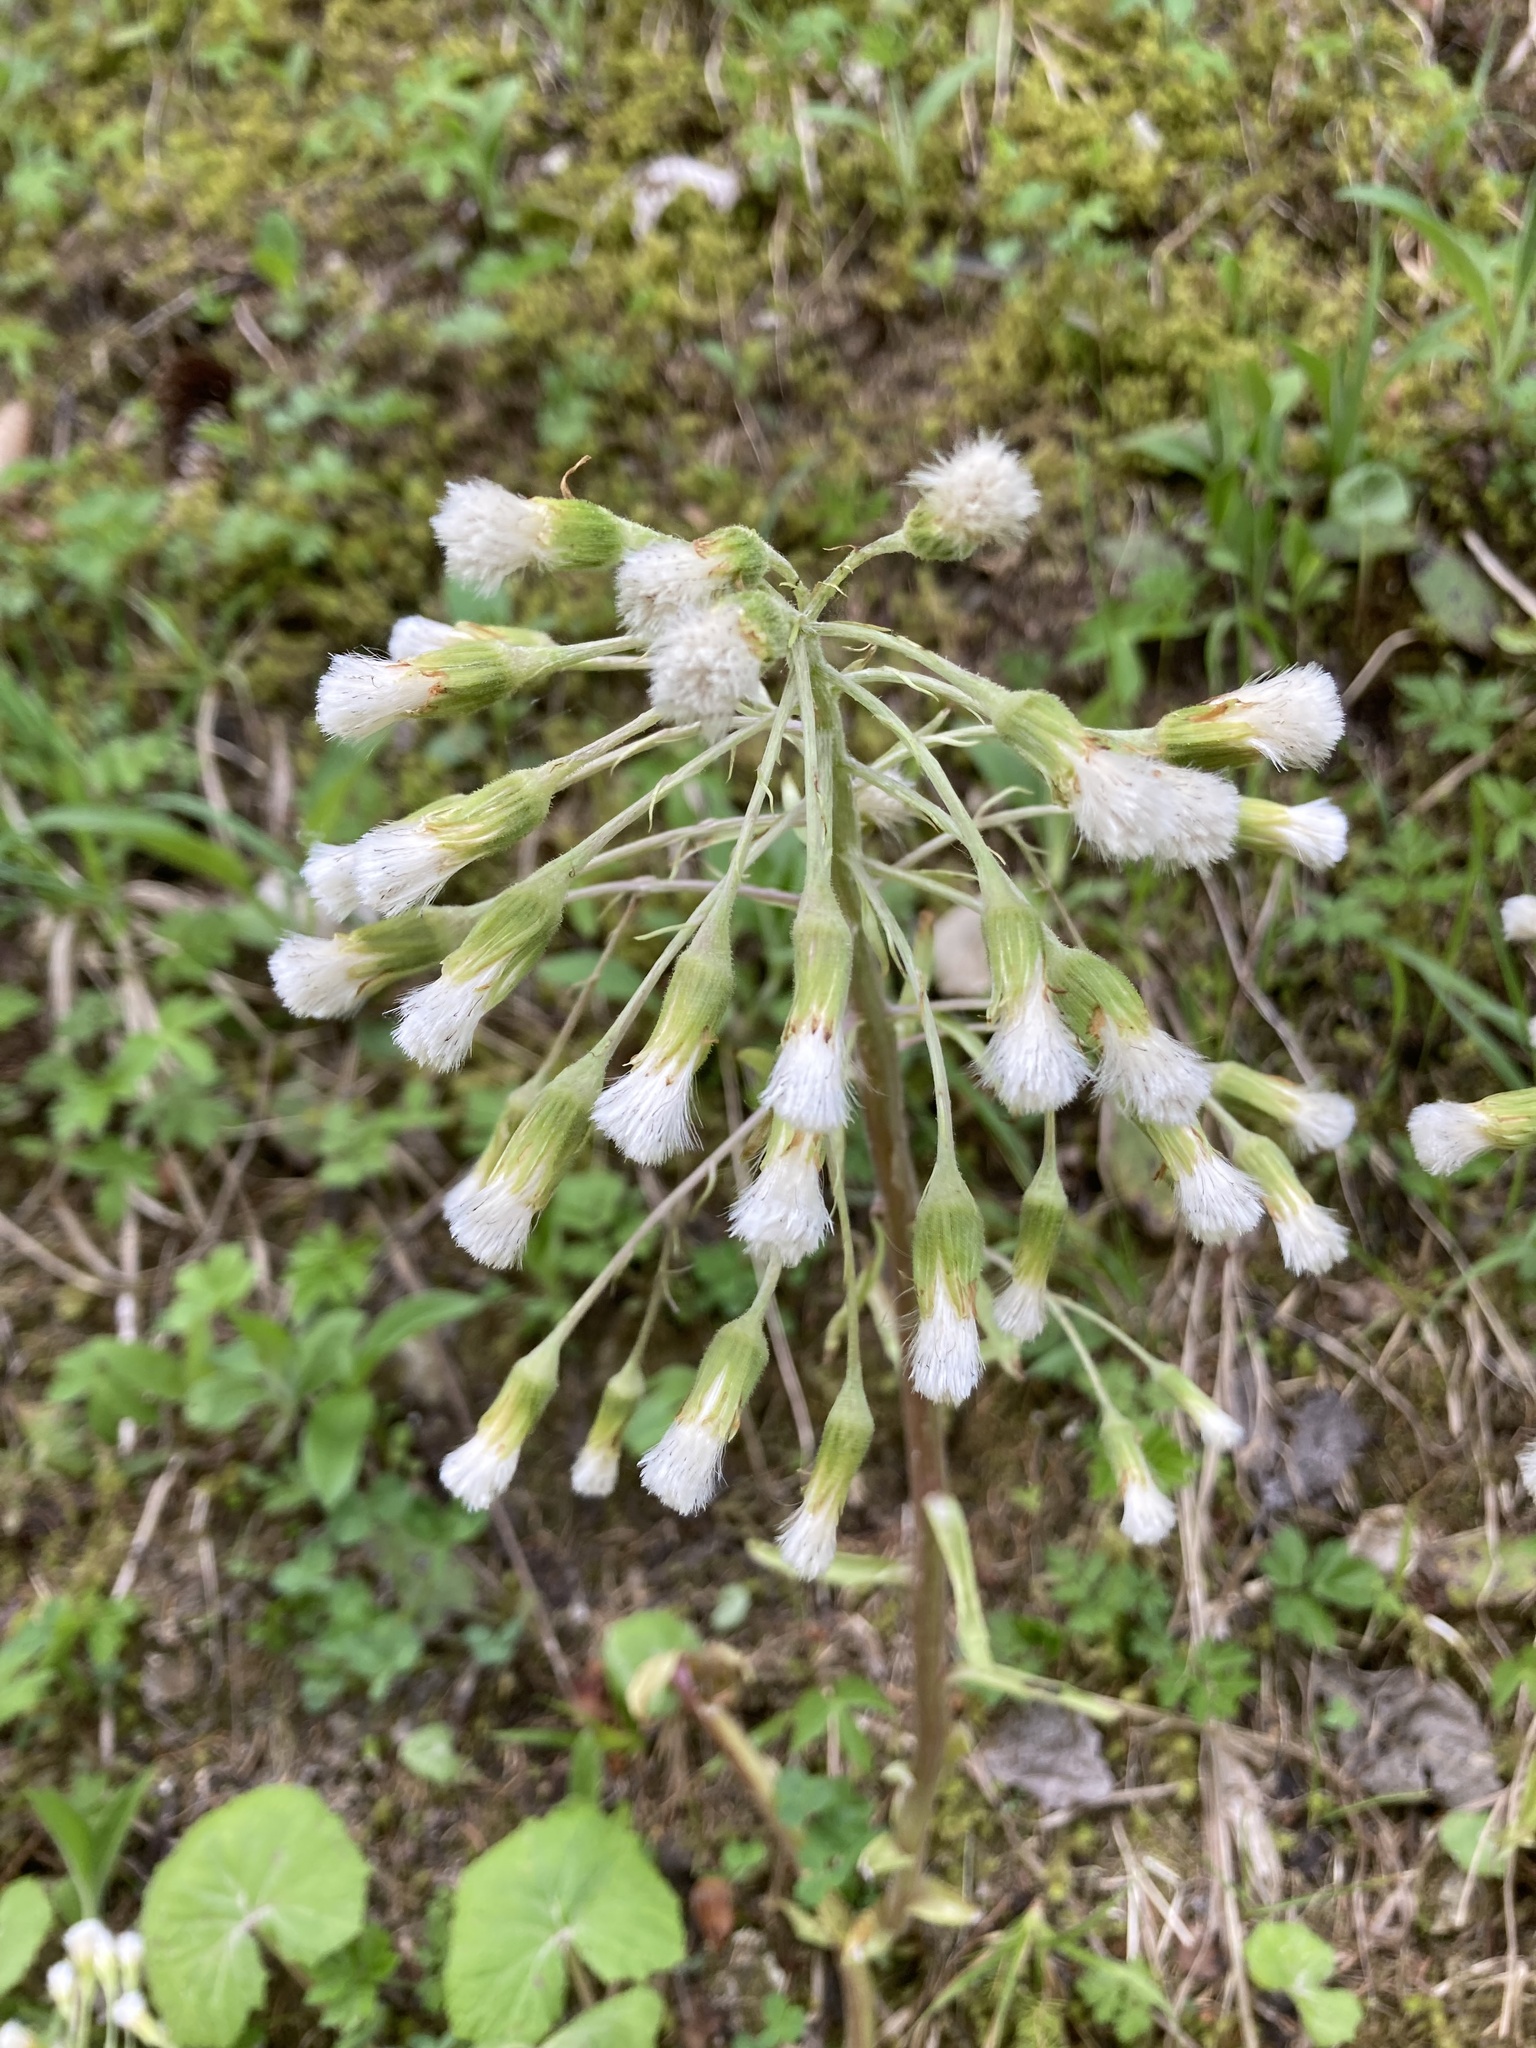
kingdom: Plantae
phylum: Tracheophyta
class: Magnoliopsida
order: Asterales
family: Asteraceae
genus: Petasites
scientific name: Petasites albus
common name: White butterbur
